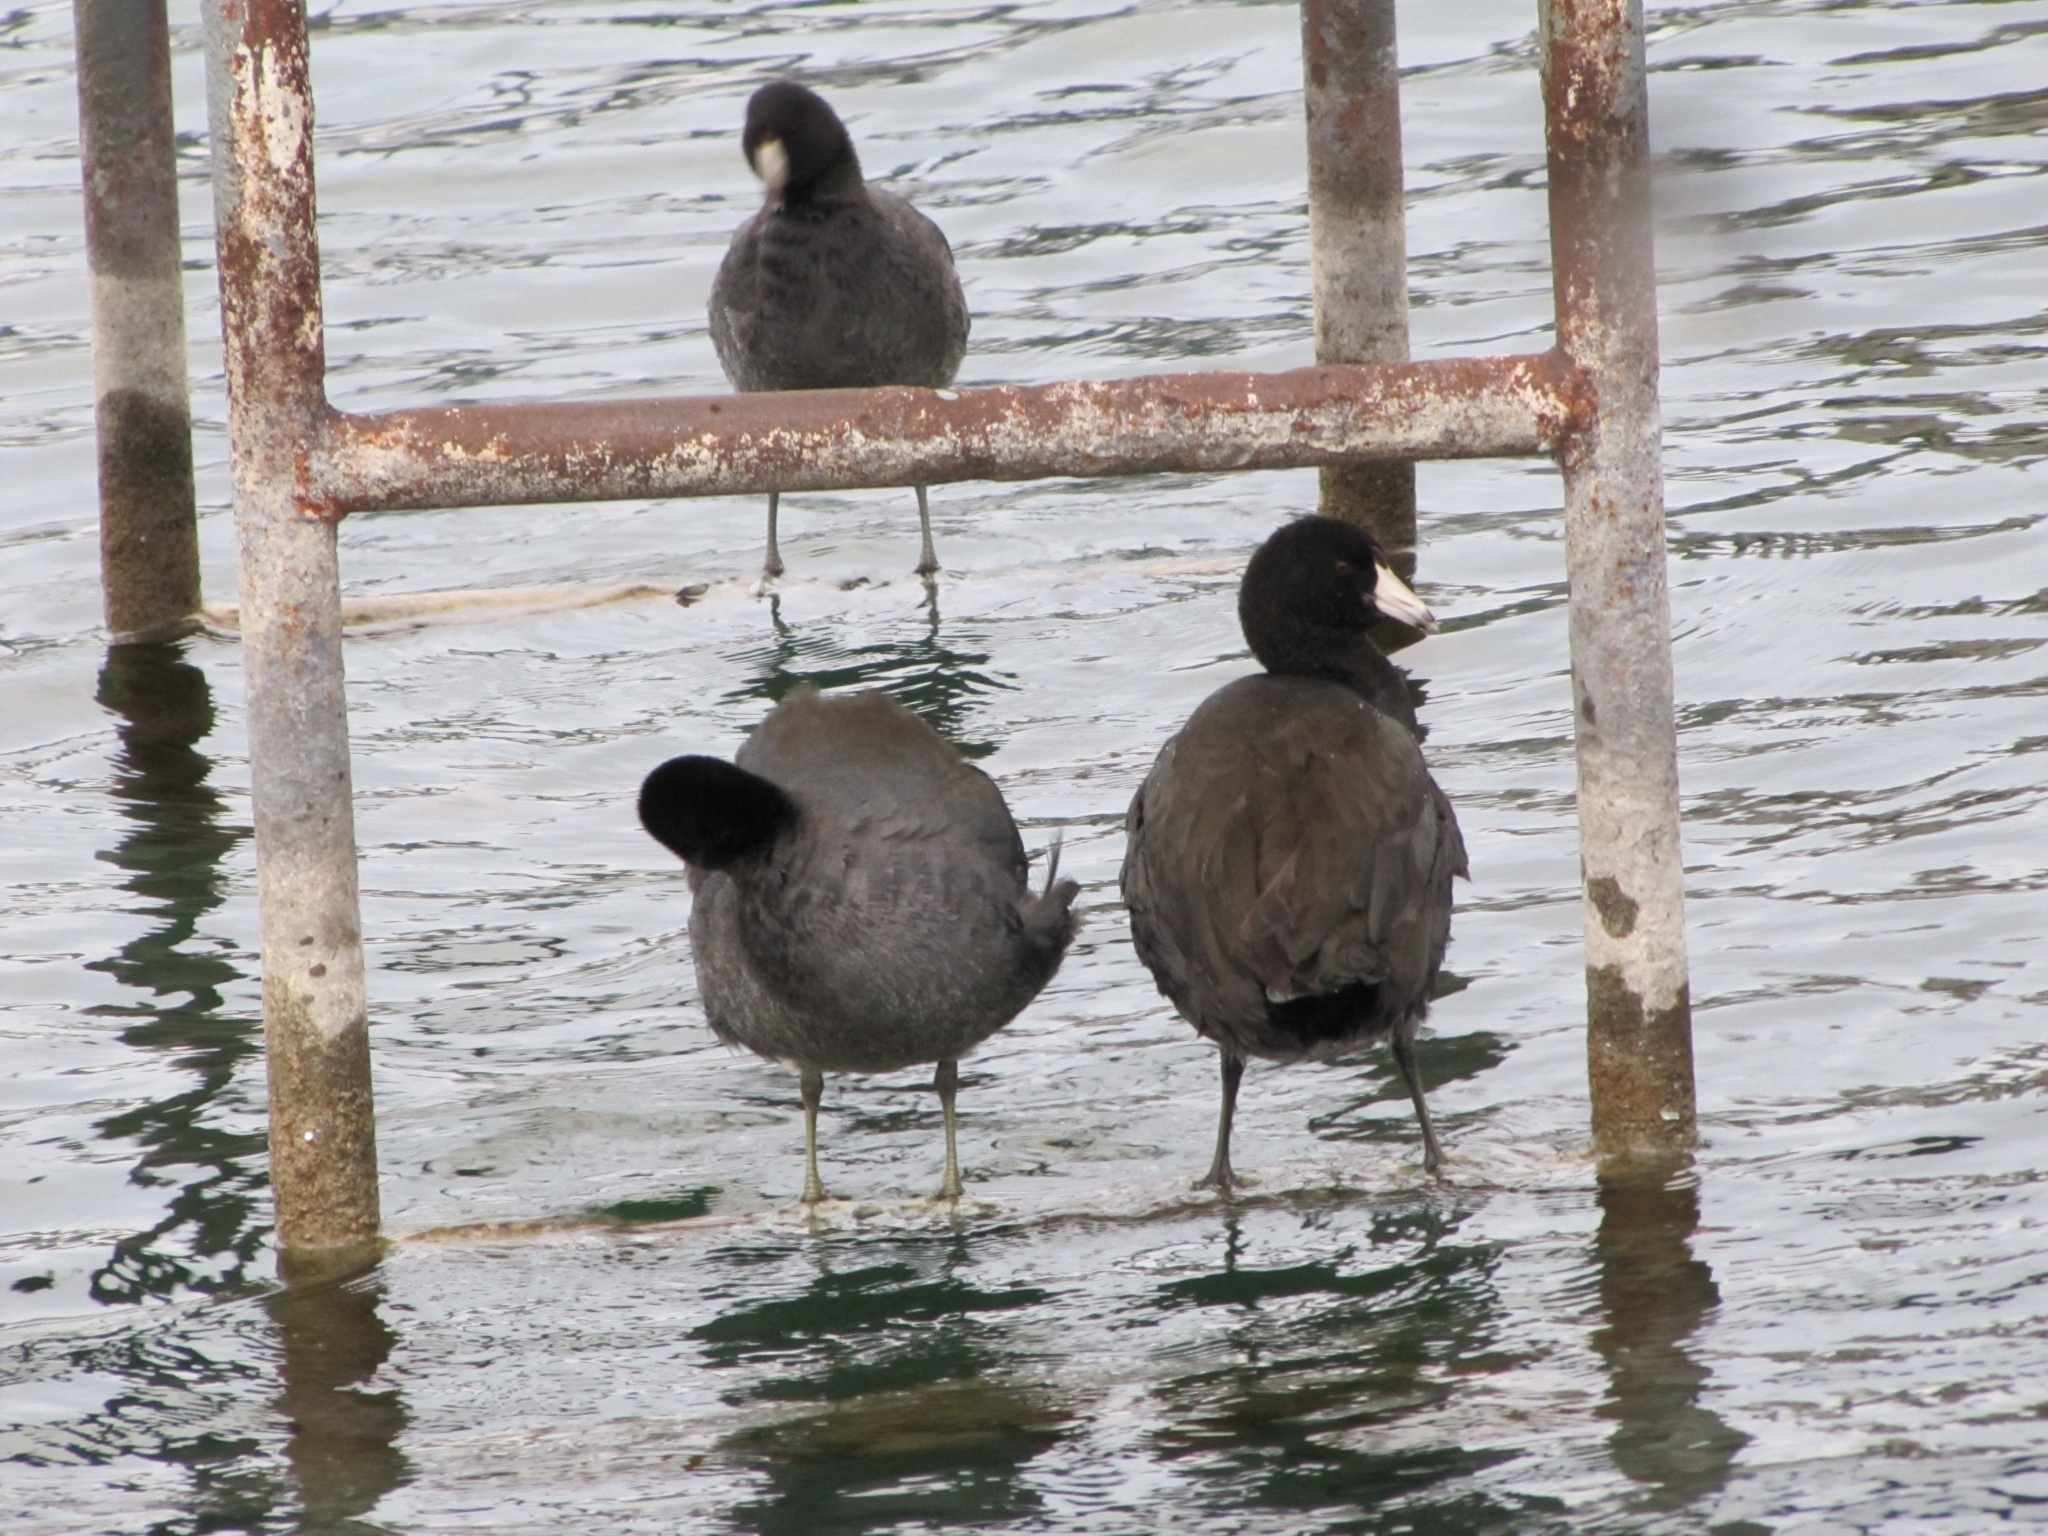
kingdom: Animalia
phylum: Chordata
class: Aves
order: Gruiformes
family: Rallidae
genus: Fulica
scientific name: Fulica americana
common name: American coot
